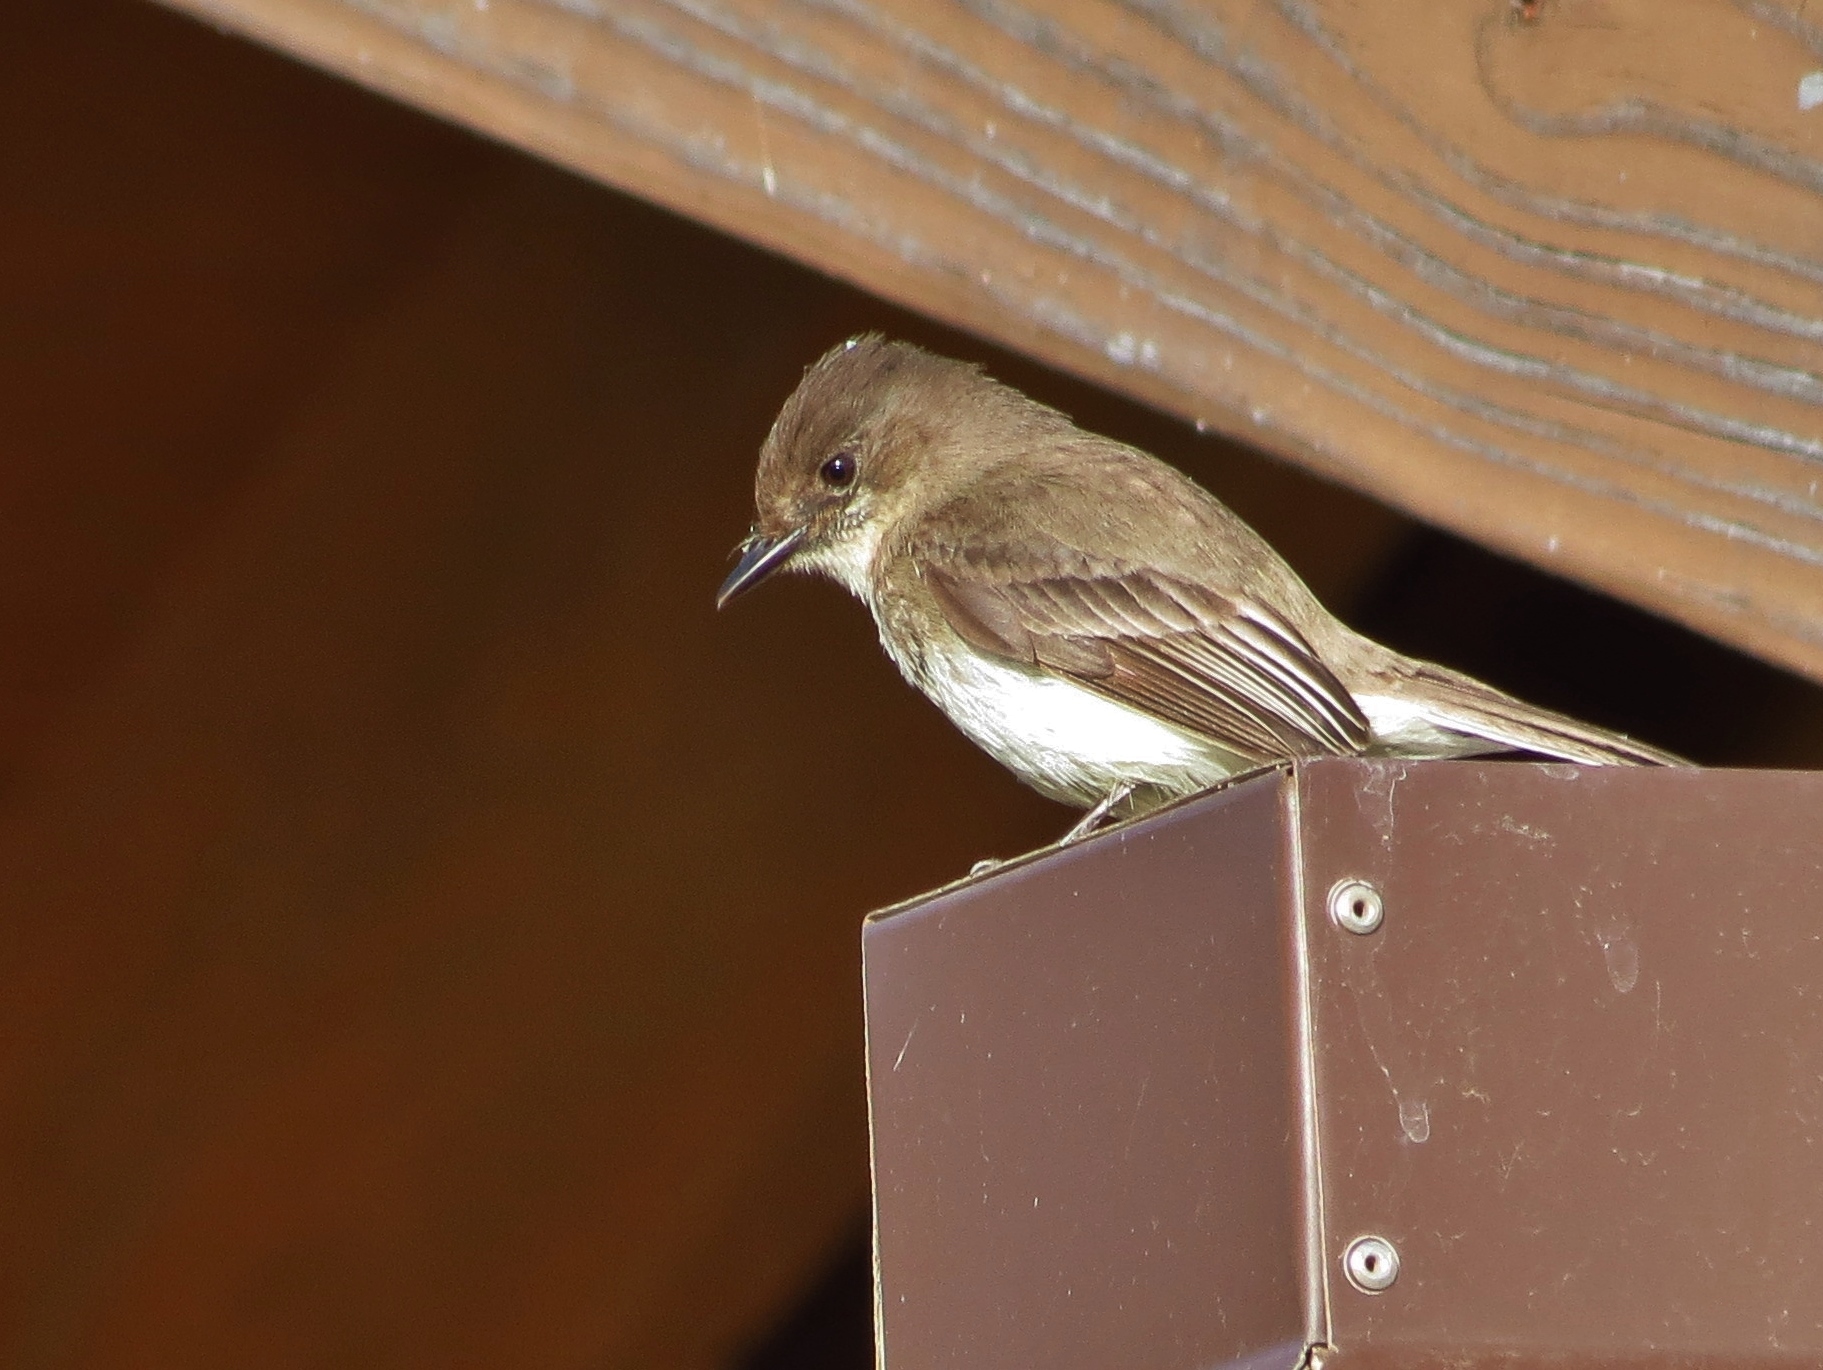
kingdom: Animalia
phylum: Chordata
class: Aves
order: Passeriformes
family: Tyrannidae
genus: Sayornis
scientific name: Sayornis phoebe
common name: Eastern phoebe
